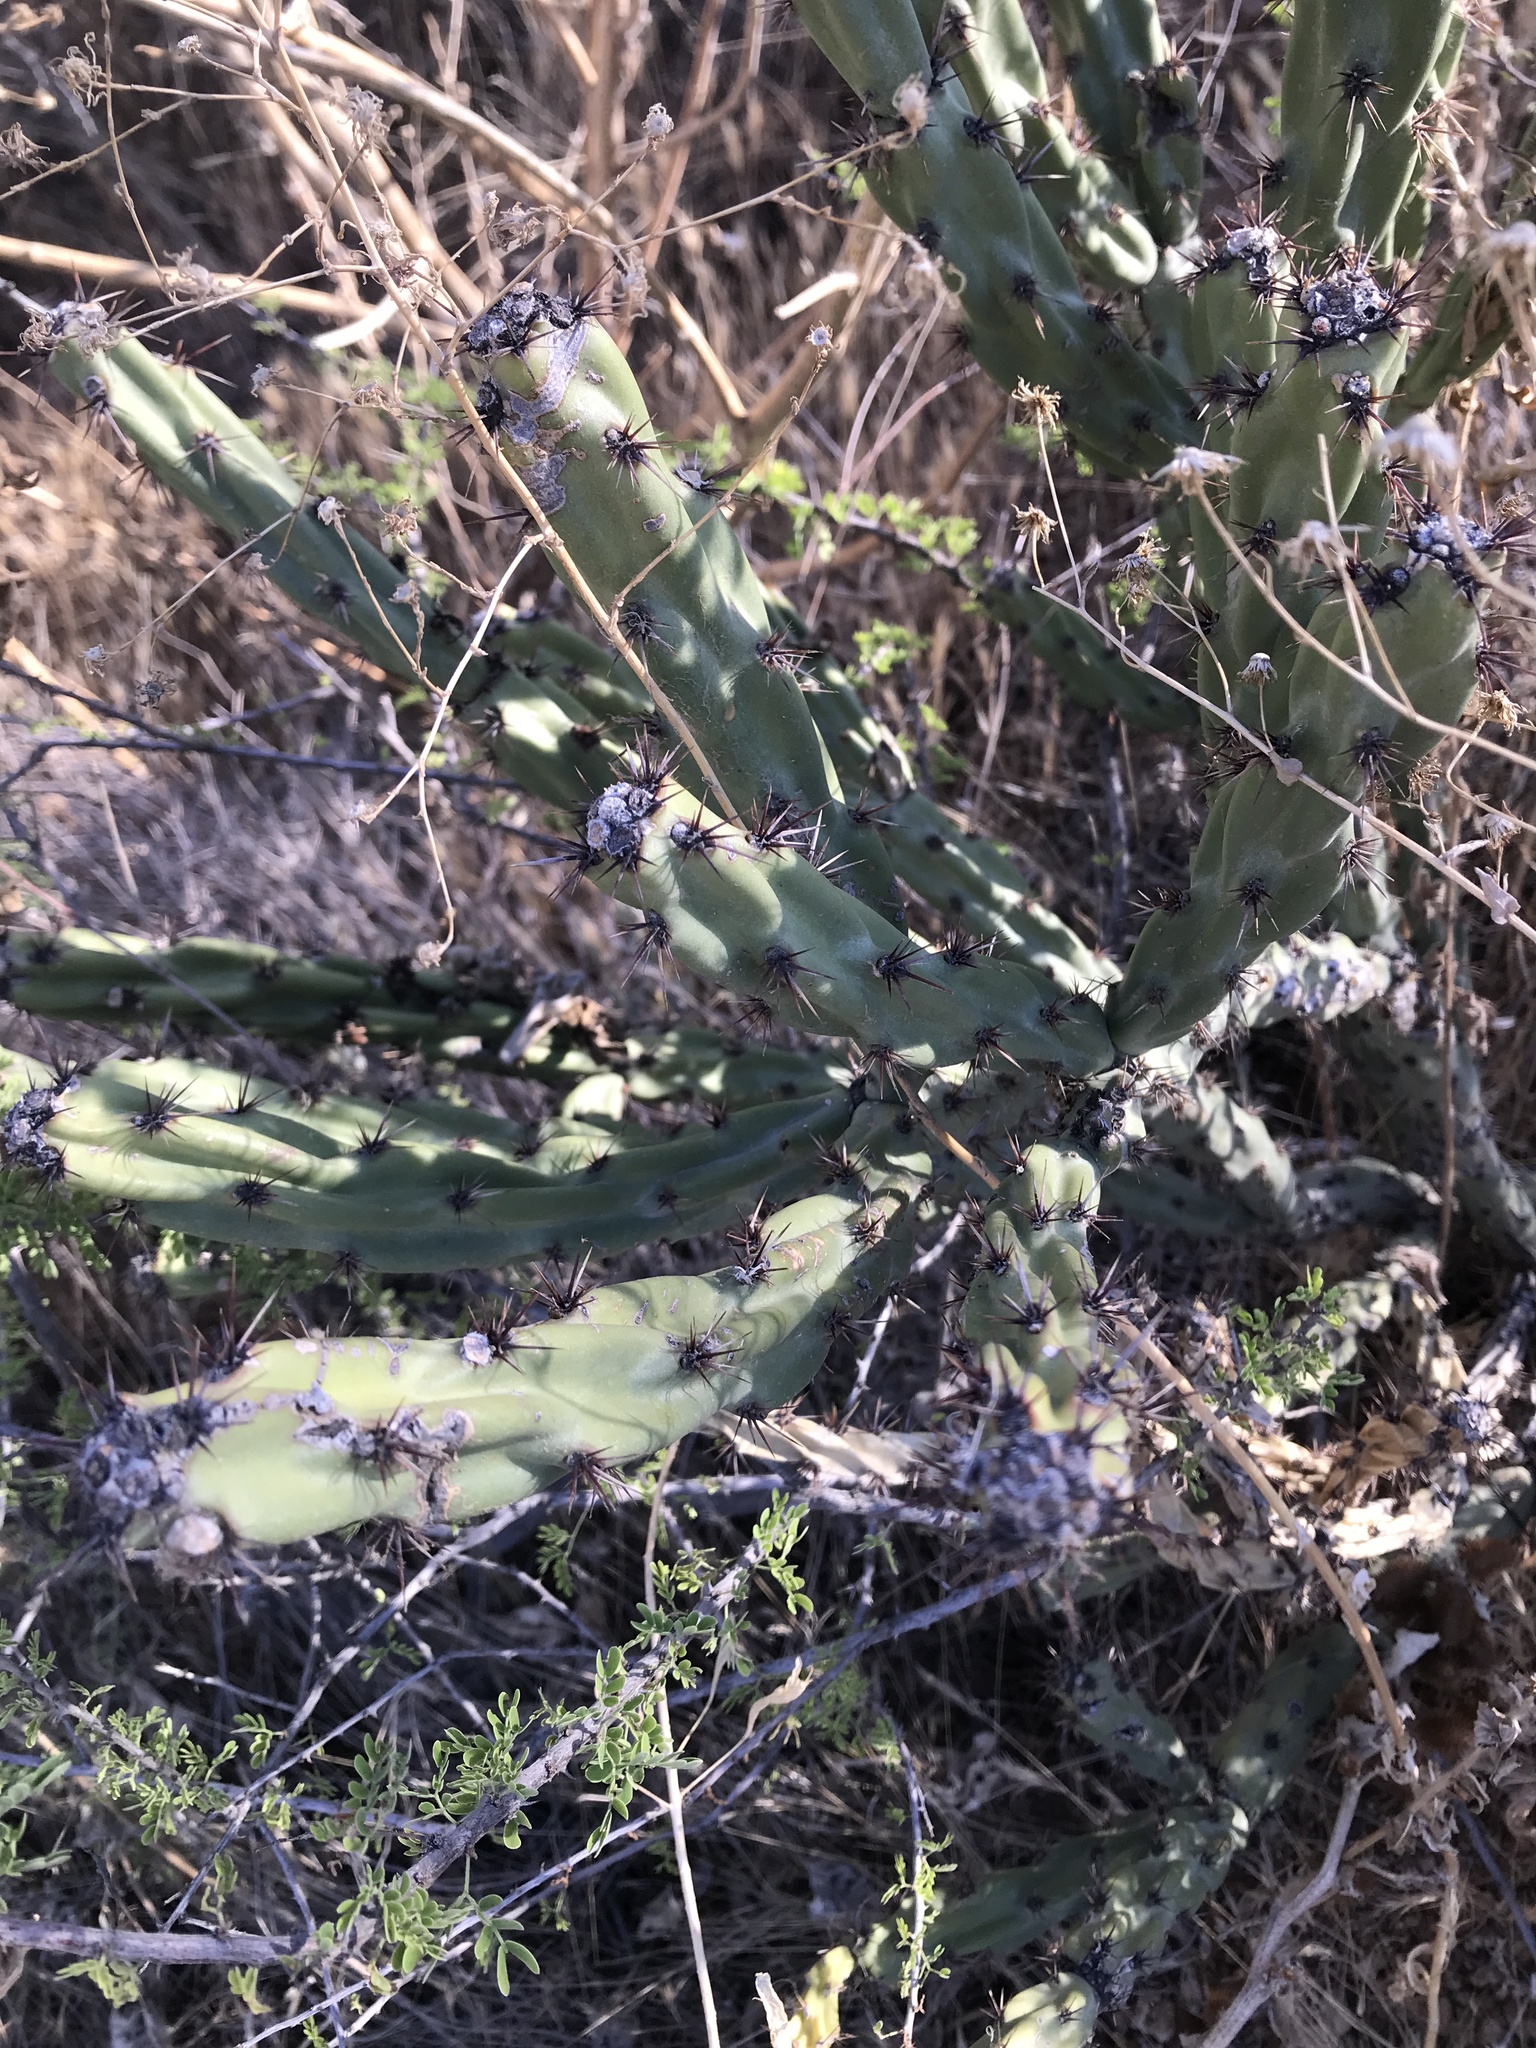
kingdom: Plantae
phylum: Tracheophyta
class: Magnoliopsida
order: Caryophyllales
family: Cactaceae
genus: Cylindropuntia
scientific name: Cylindropuntia acanthocarpa
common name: Buckhorn cholla
